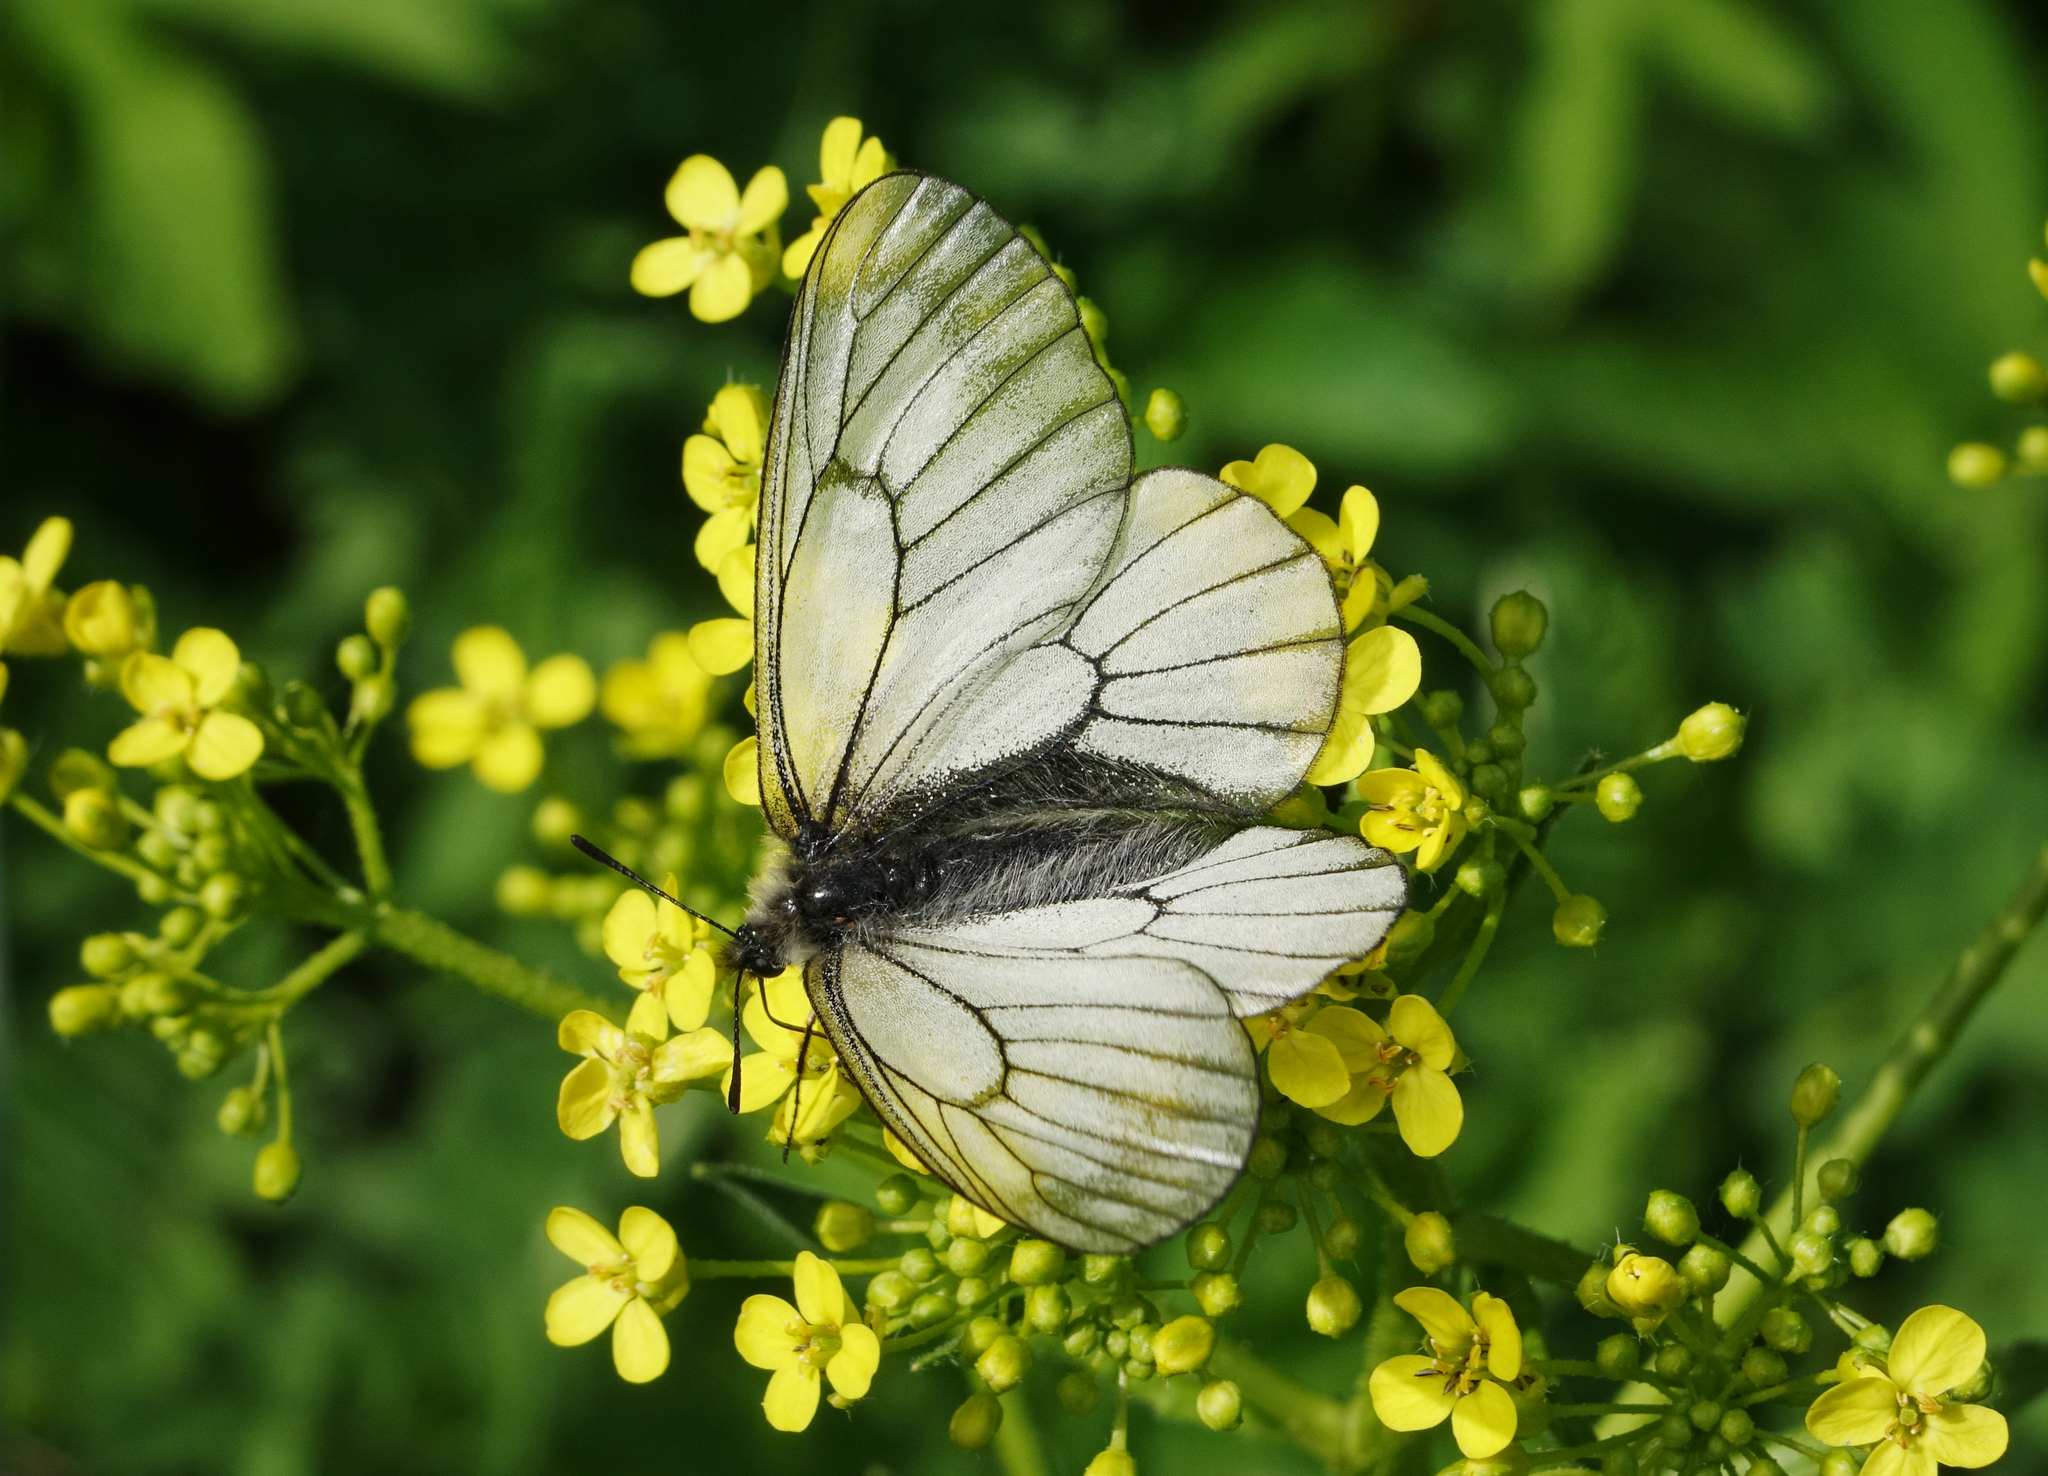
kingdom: Animalia
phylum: Arthropoda
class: Insecta
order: Lepidoptera
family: Papilionidae
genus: Parnassius
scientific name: Parnassius stubbendorfii
